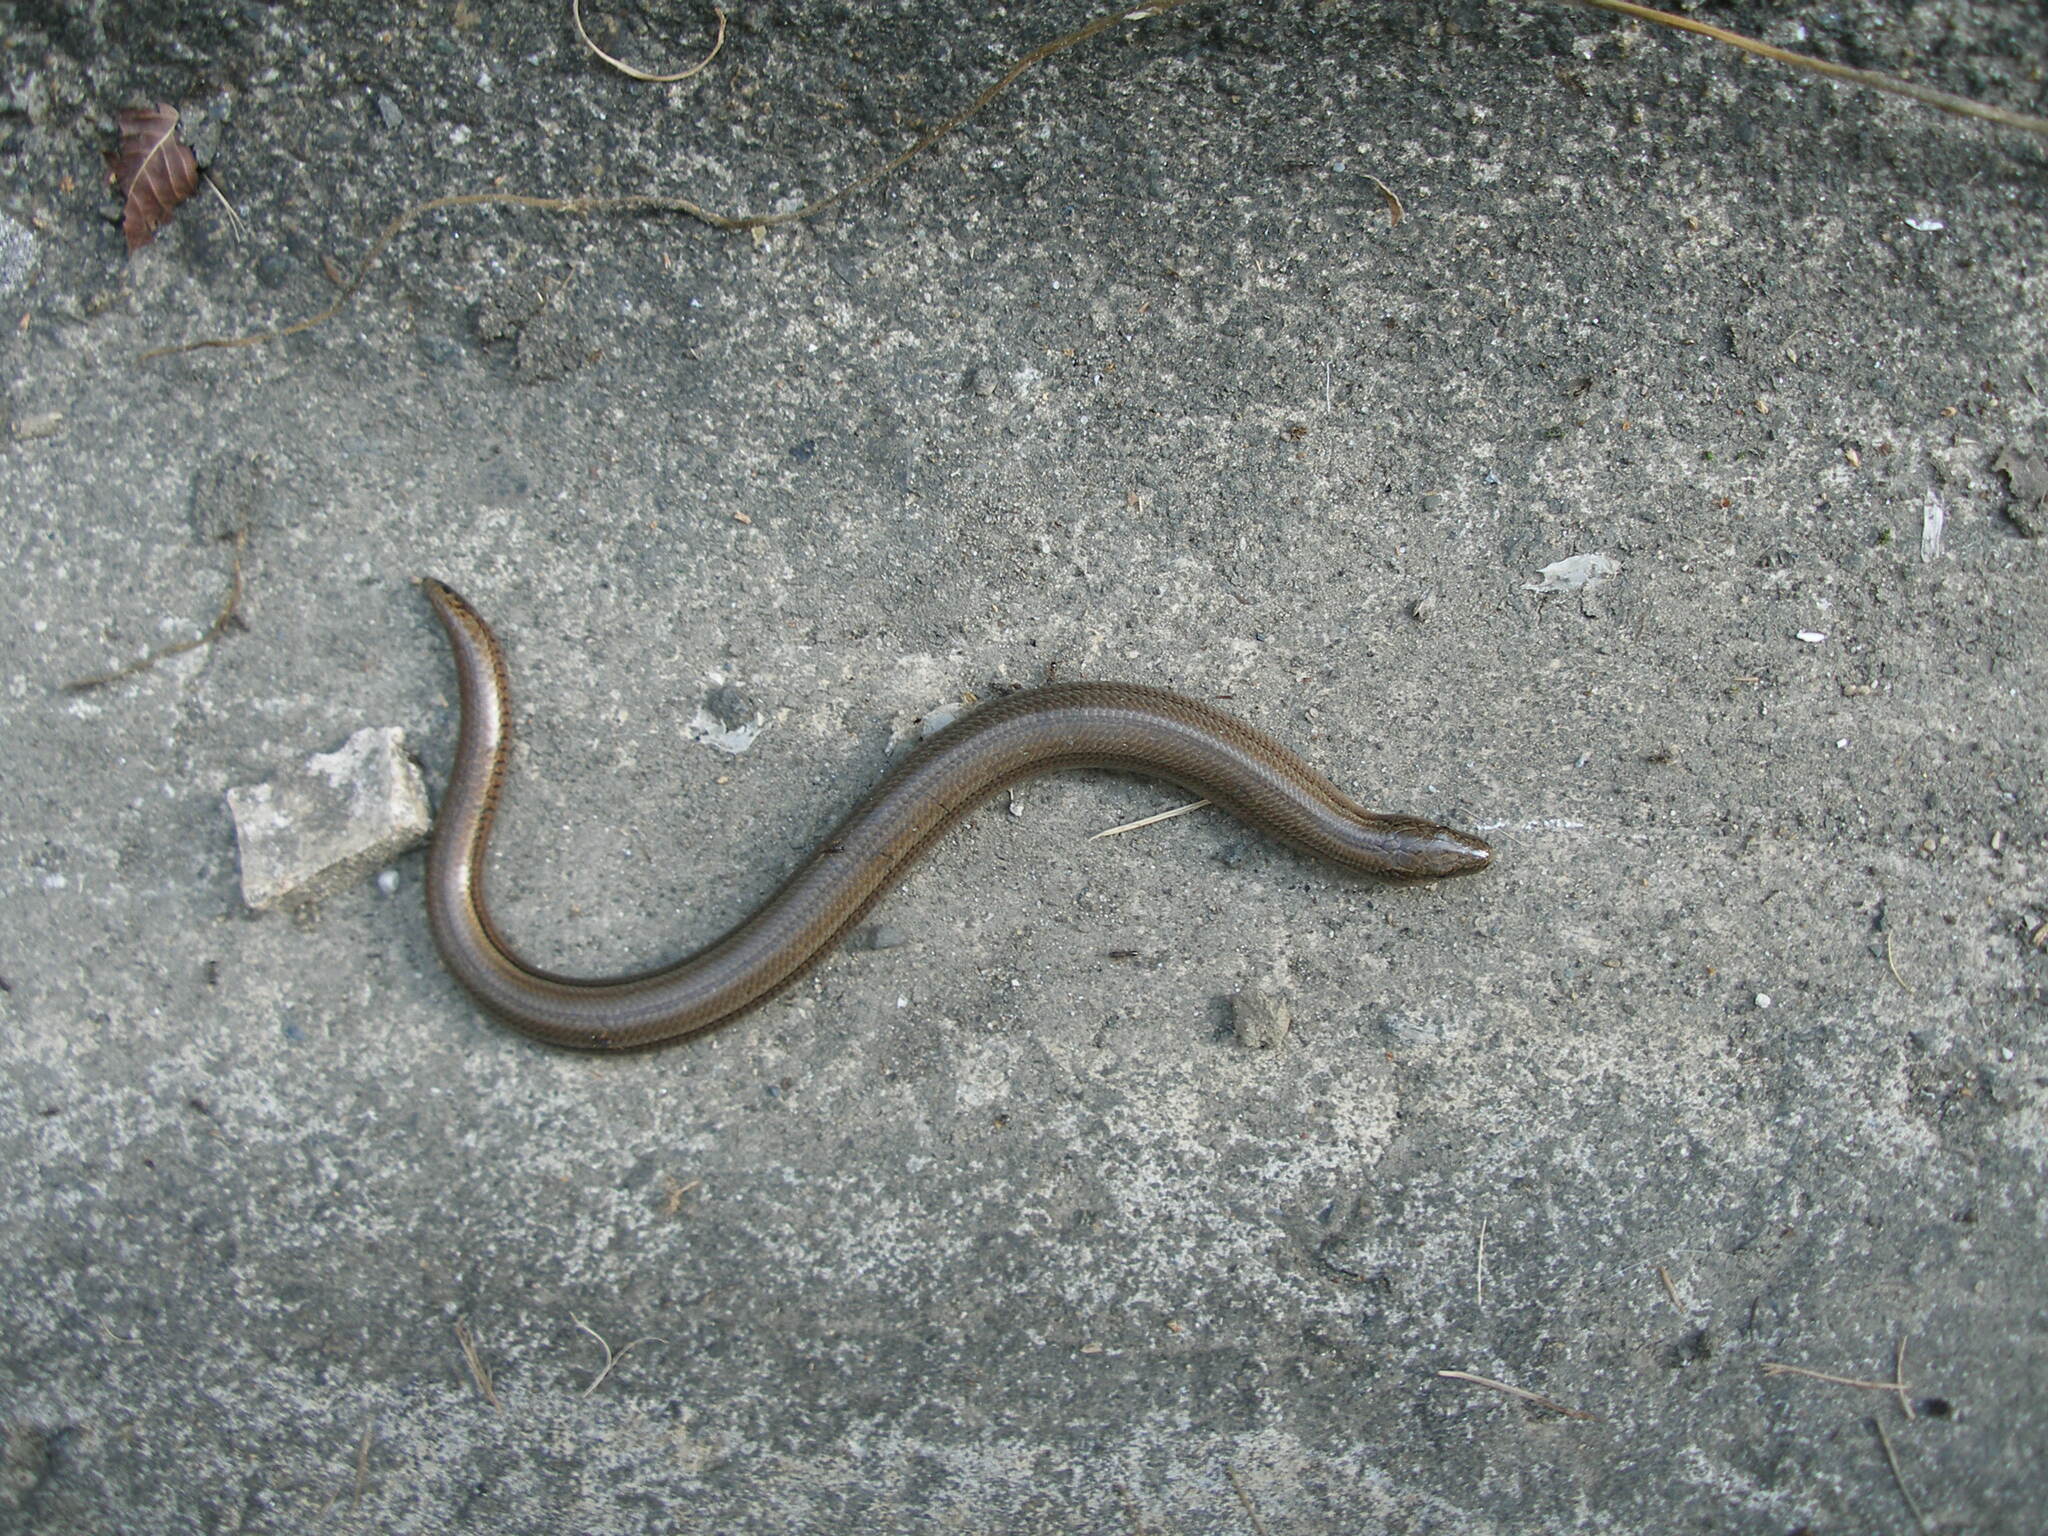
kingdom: Animalia
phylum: Chordata
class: Squamata
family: Anguidae
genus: Anguis
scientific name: Anguis colchica
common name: Slow worm
